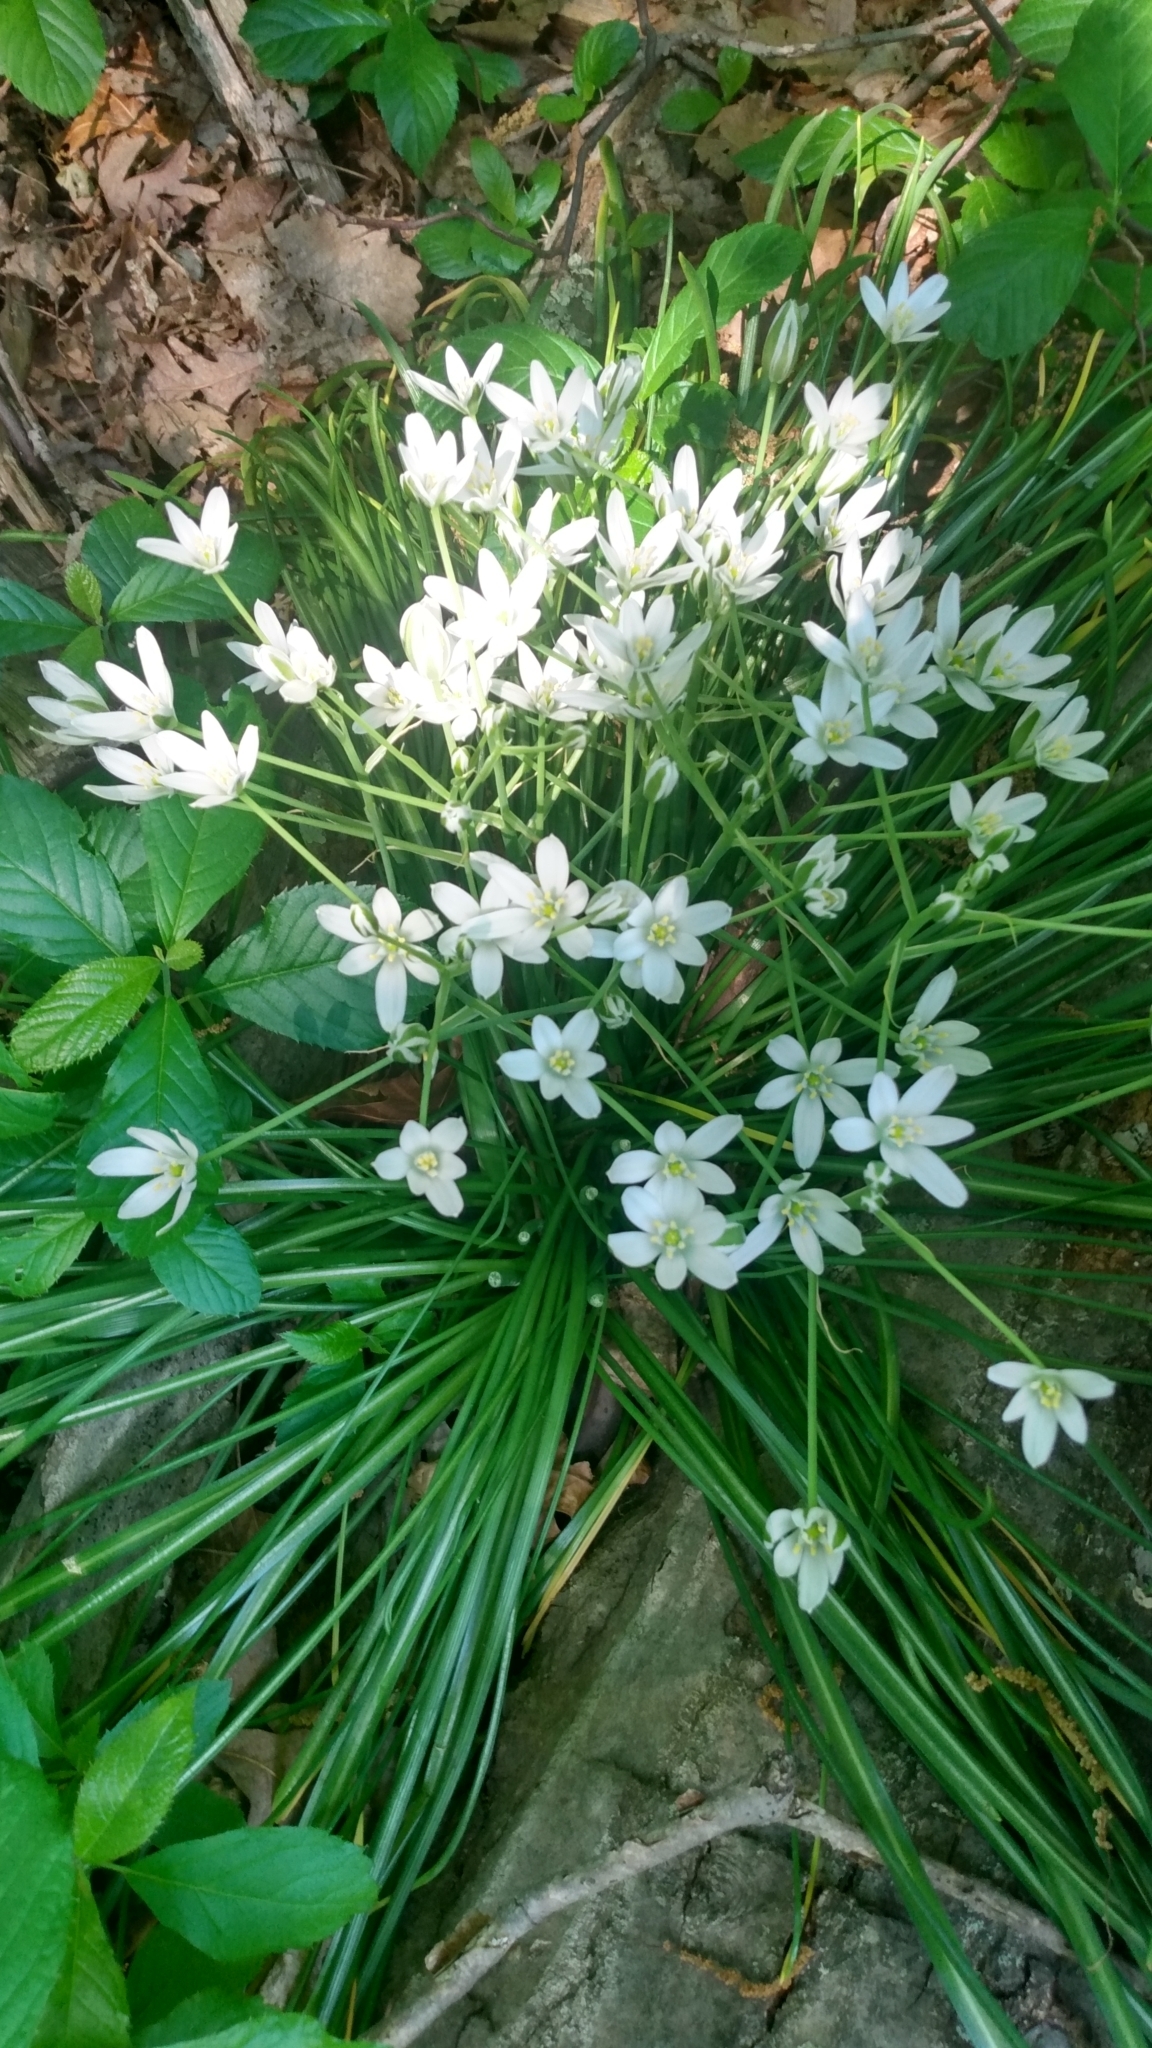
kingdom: Plantae
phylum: Tracheophyta
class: Liliopsida
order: Asparagales
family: Asparagaceae
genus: Ornithogalum
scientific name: Ornithogalum umbellatum
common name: Garden star-of-bethlehem
